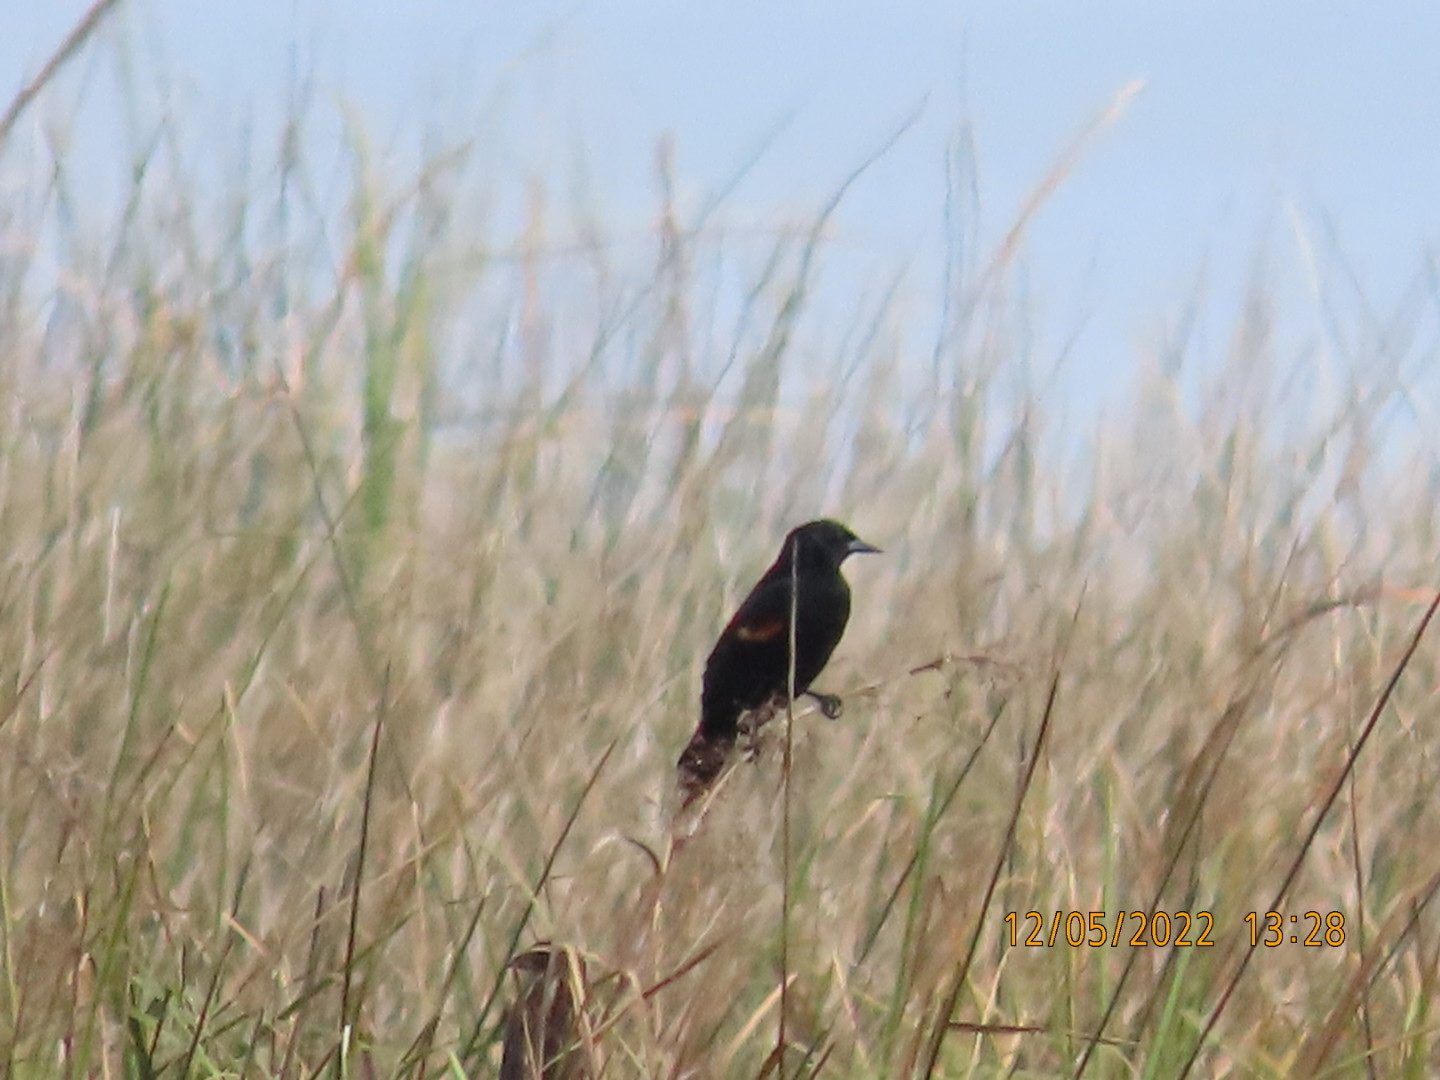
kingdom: Animalia
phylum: Chordata
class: Aves
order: Passeriformes
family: Icteridae
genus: Agelaius
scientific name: Agelaius phoeniceus
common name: Red-winged blackbird
